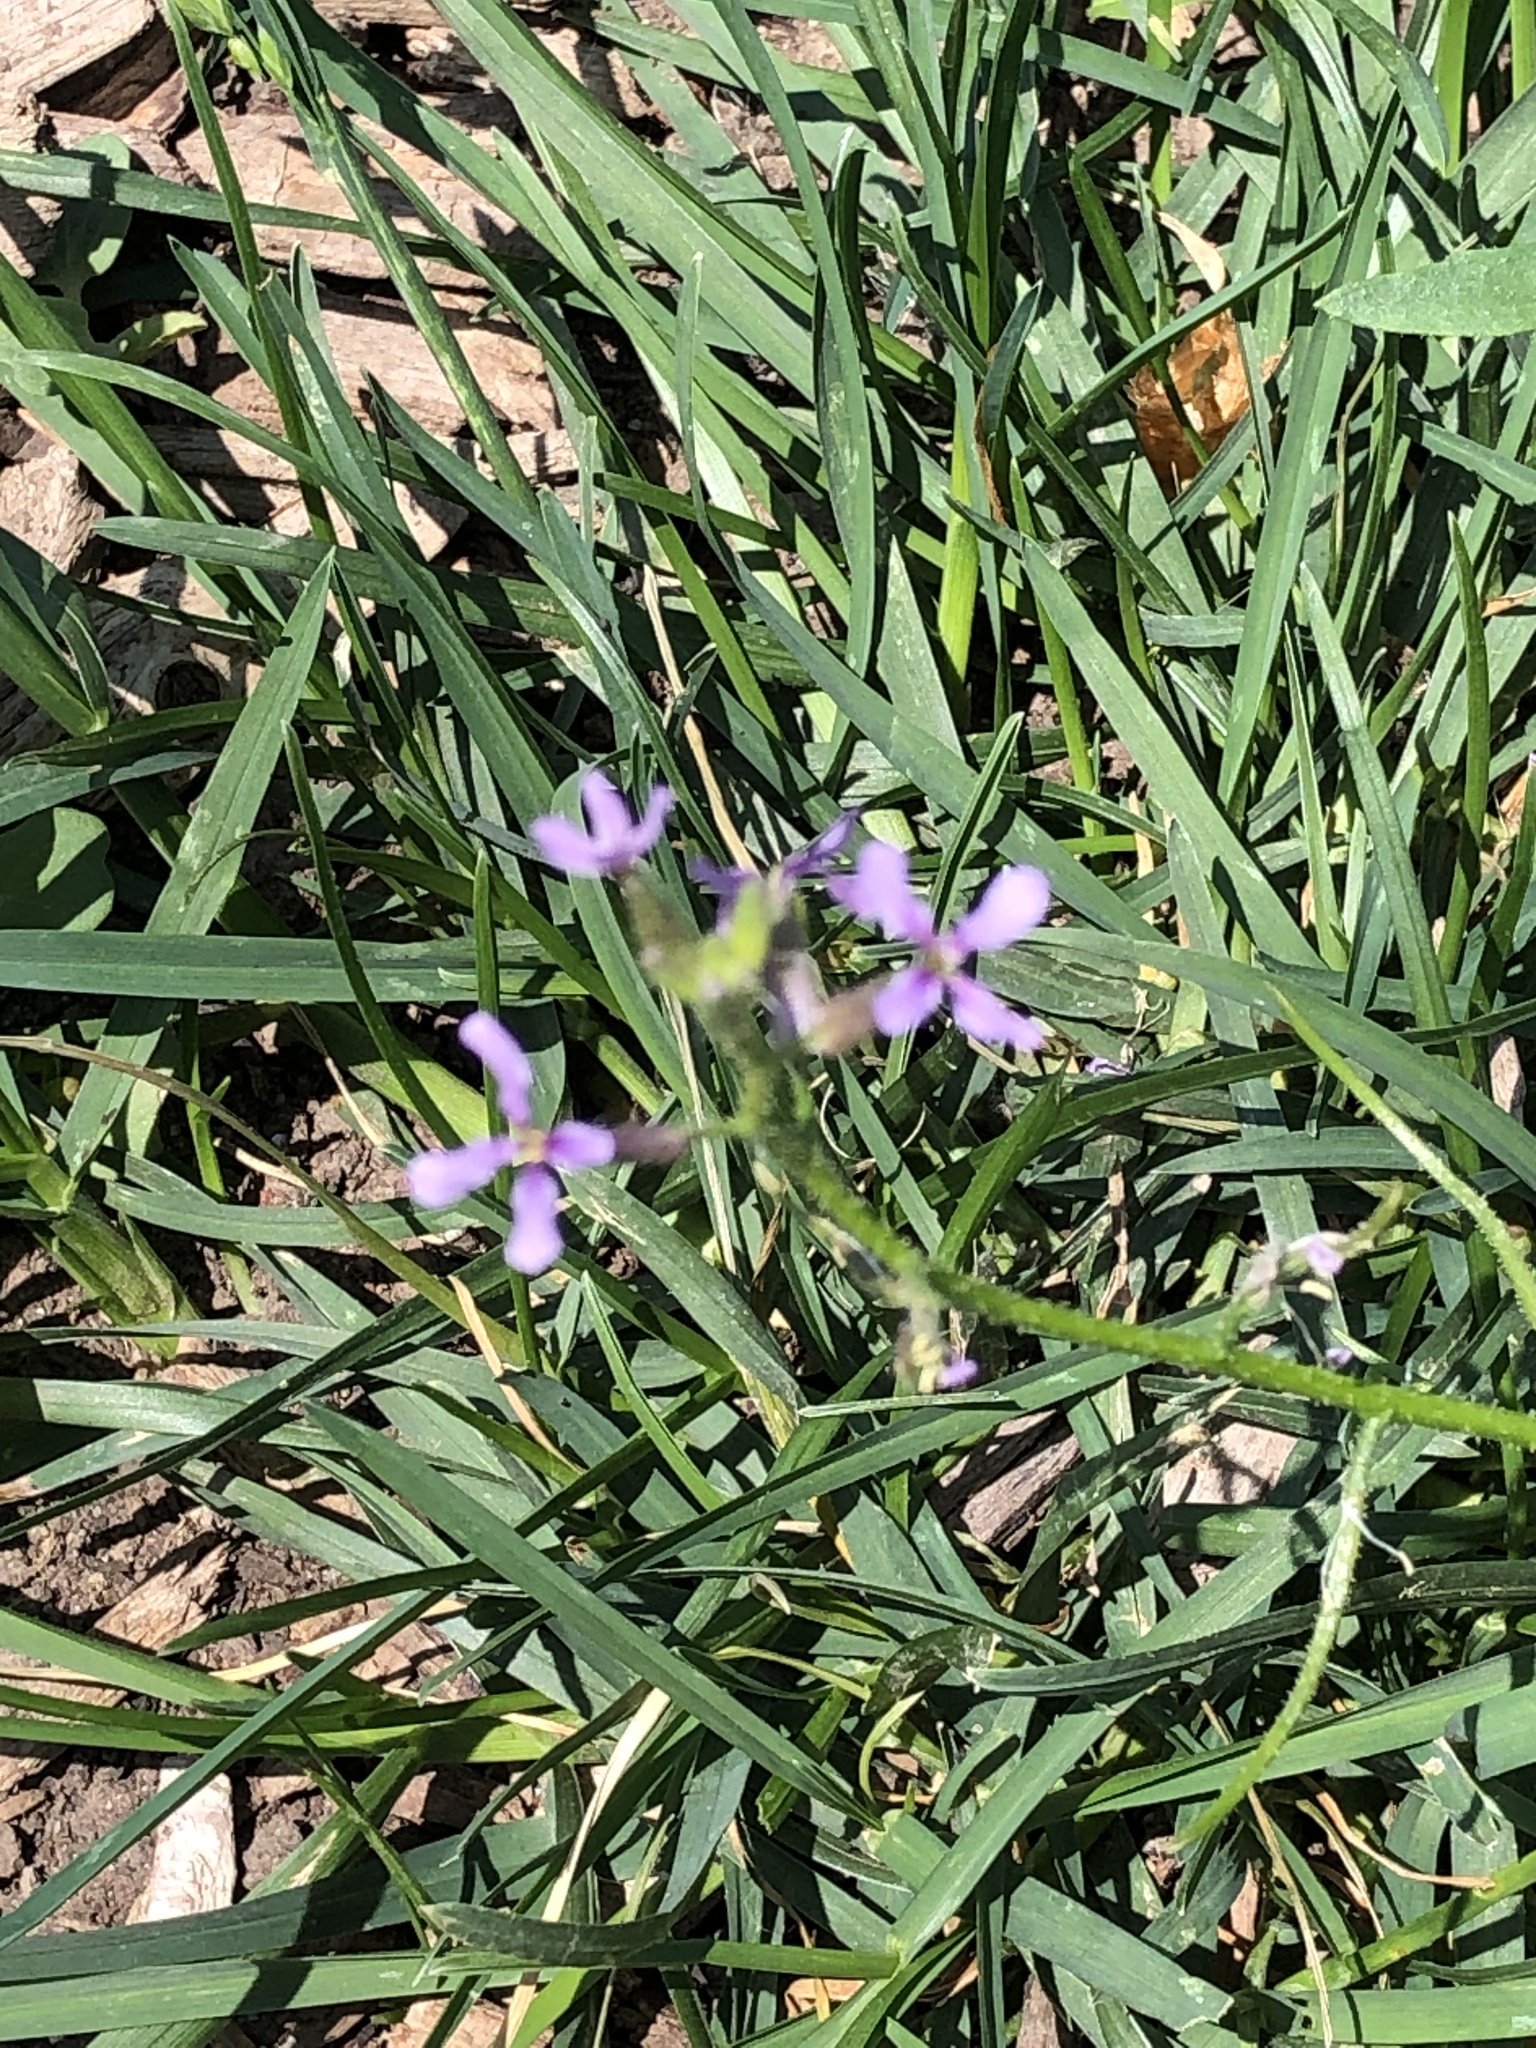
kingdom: Plantae
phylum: Tracheophyta
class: Magnoliopsida
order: Brassicales
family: Brassicaceae
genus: Chorispora
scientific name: Chorispora tenella
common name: Crossflower
